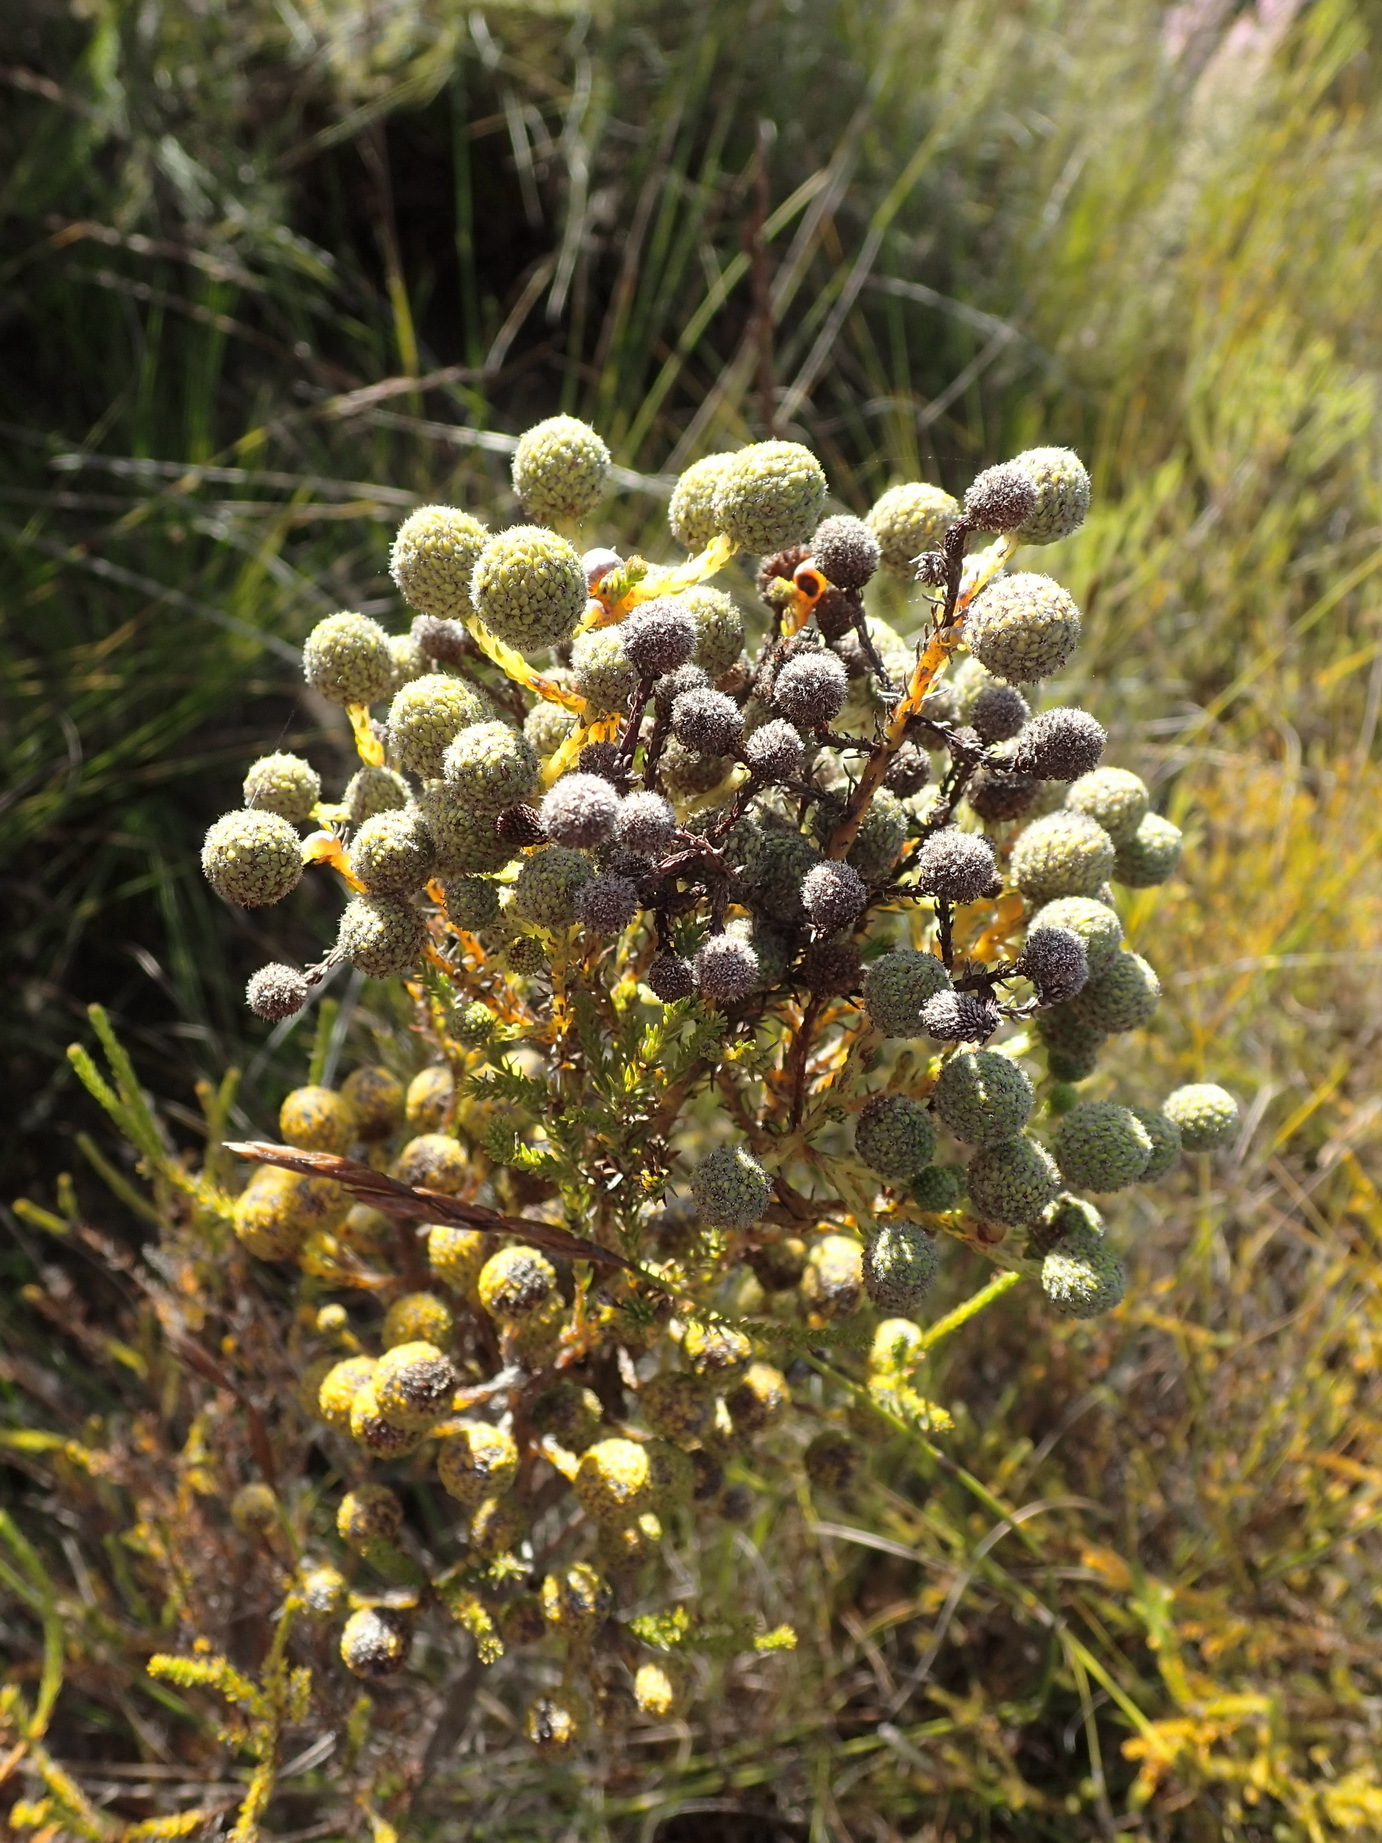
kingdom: Plantae
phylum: Tracheophyta
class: Magnoliopsida
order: Bruniales
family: Bruniaceae
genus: Berzelia
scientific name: Berzelia intermedia
